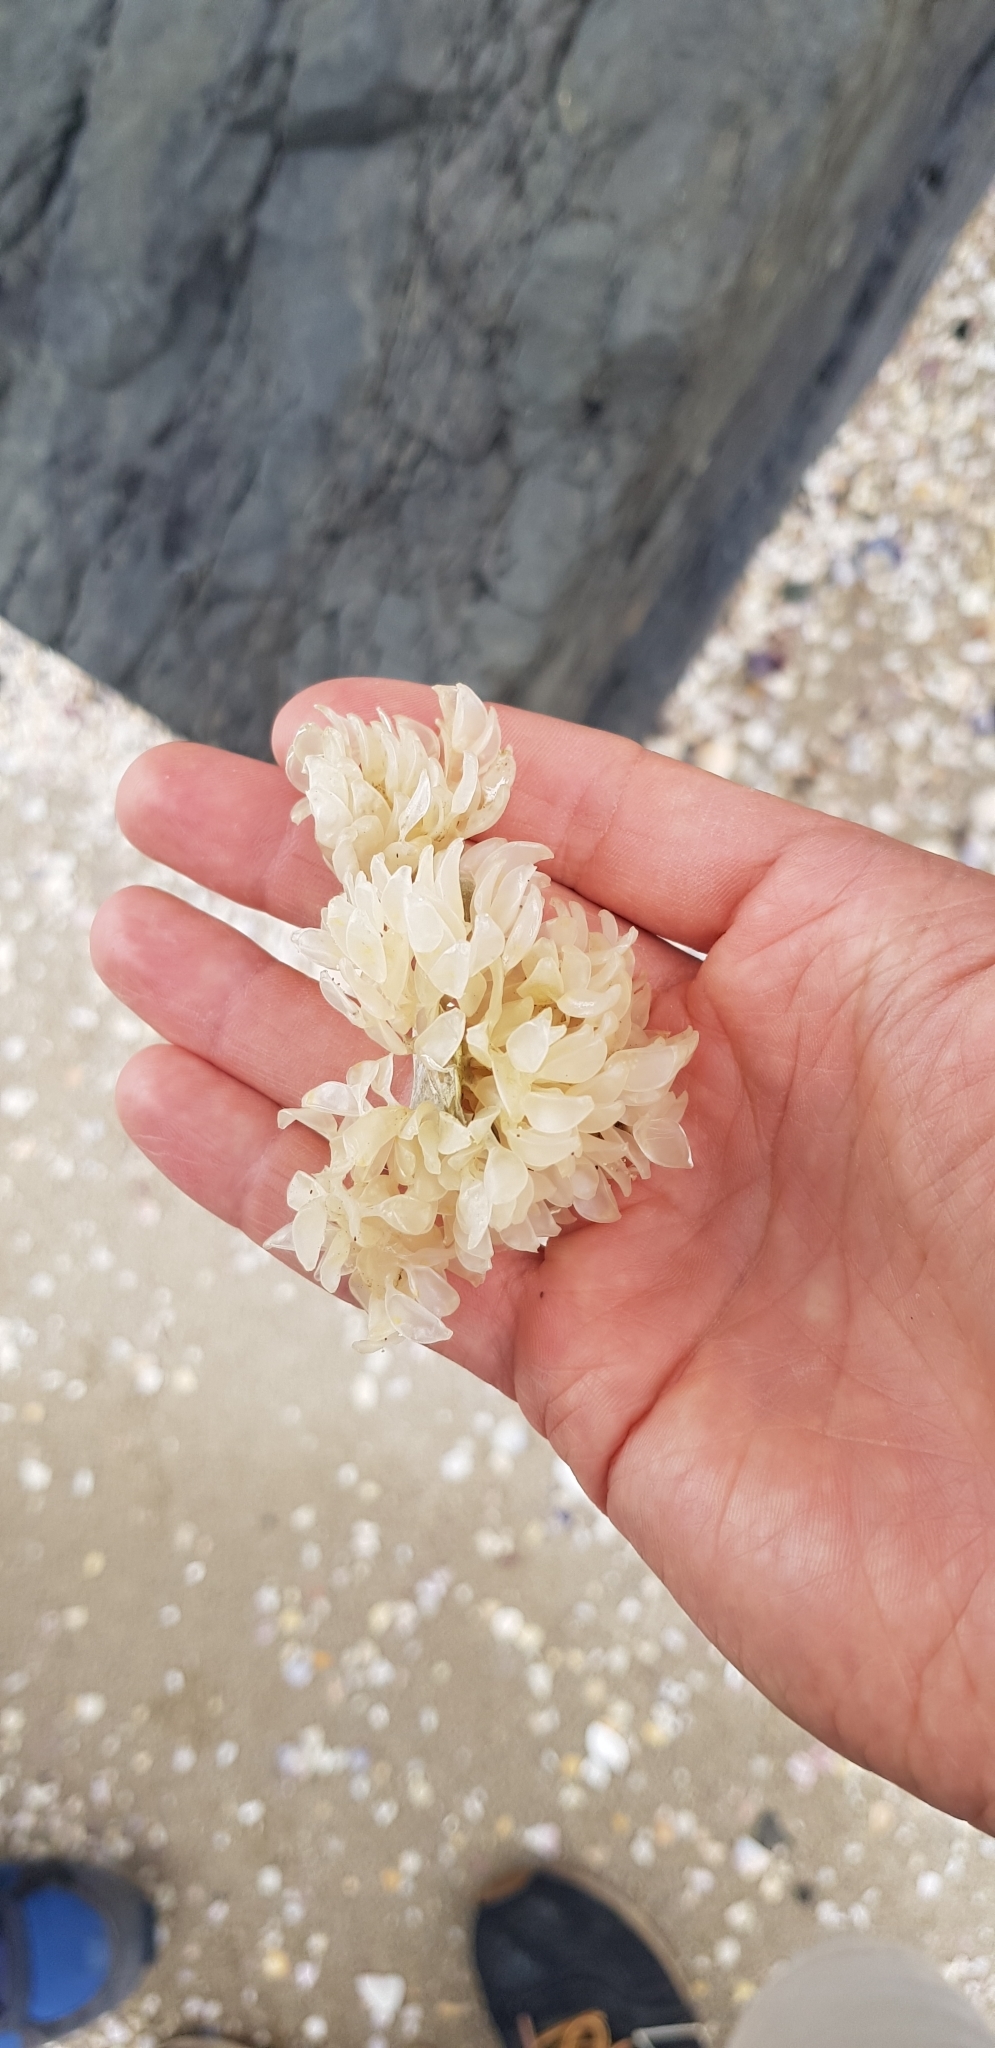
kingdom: Animalia
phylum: Mollusca
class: Gastropoda
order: Neogastropoda
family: Cominellidae
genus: Cominella
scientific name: Cominella adspersa
